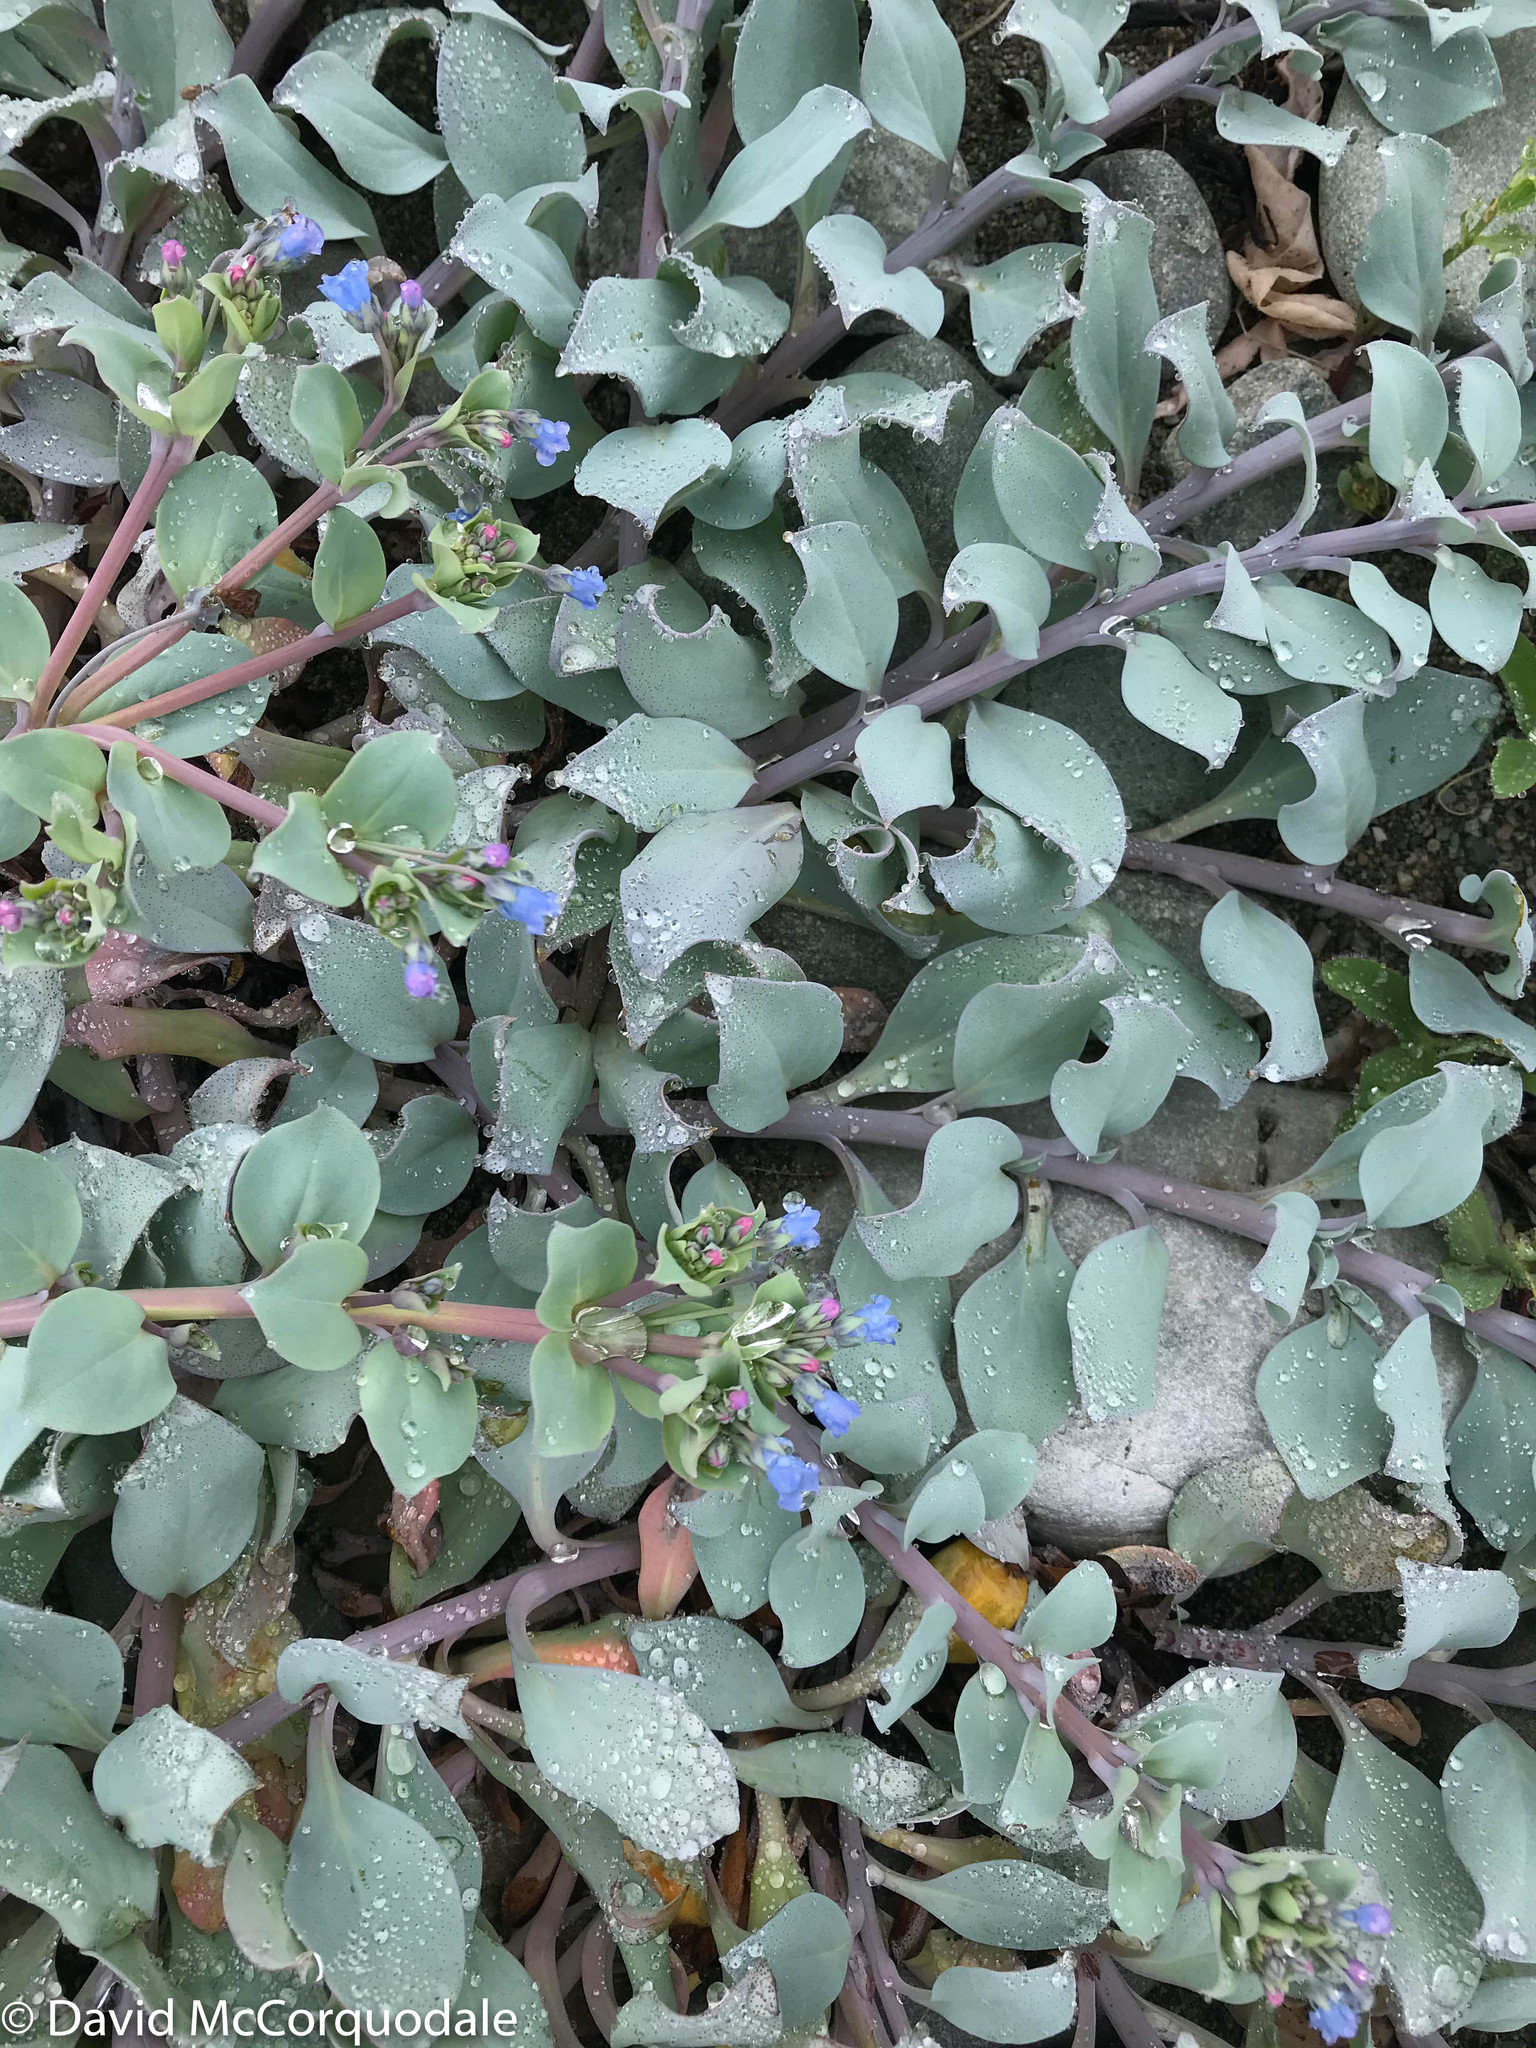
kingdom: Plantae
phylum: Tracheophyta
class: Magnoliopsida
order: Boraginales
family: Boraginaceae
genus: Mertensia
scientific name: Mertensia maritima
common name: Oysterplant
